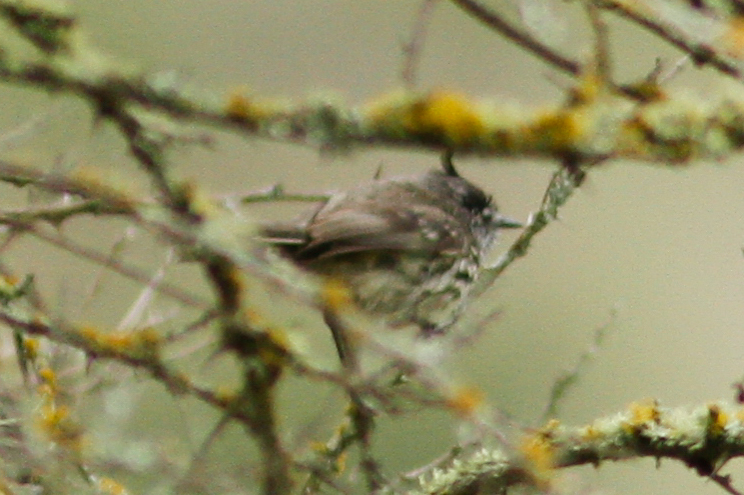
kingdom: Animalia
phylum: Chordata
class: Aves
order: Passeriformes
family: Tyrannidae
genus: Anairetes
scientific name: Anairetes parulus
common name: Tufted tit-tyrant
